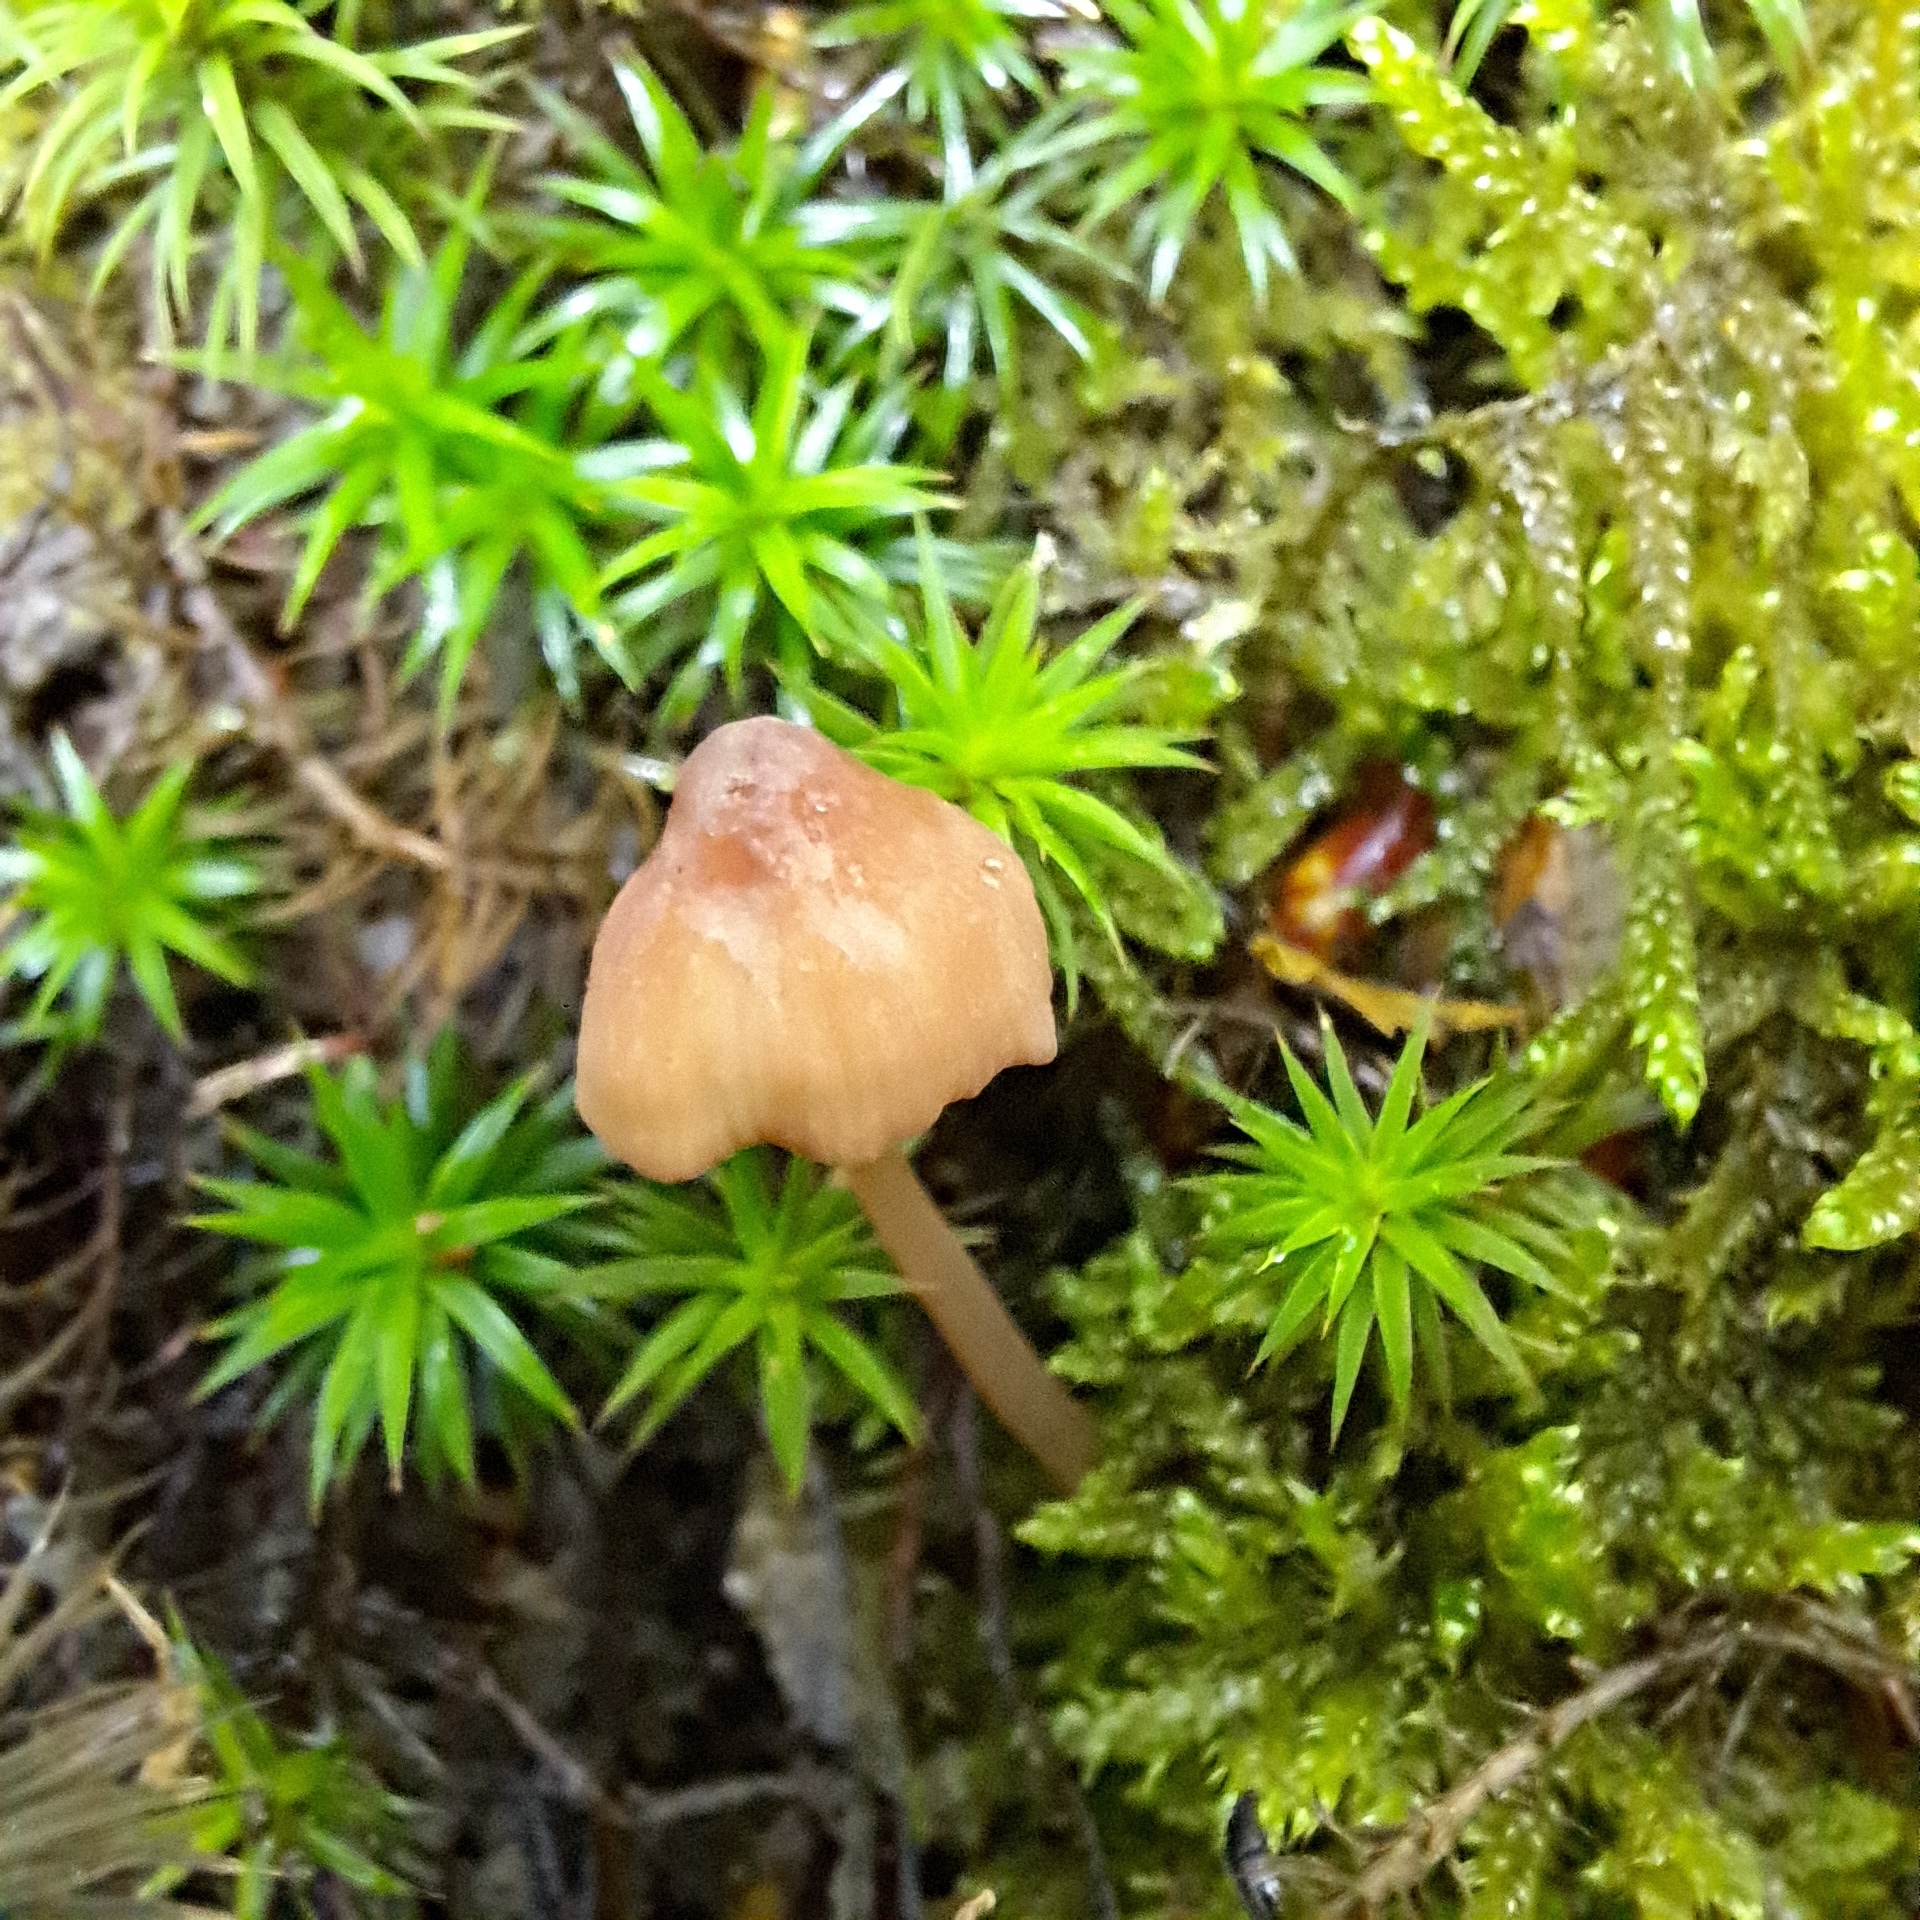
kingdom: Fungi
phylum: Basidiomycota
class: Agaricomycetes
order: Agaricales
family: Mycenaceae
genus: Mycena
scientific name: Mycena rubromarginata
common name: Red edge bonnet
